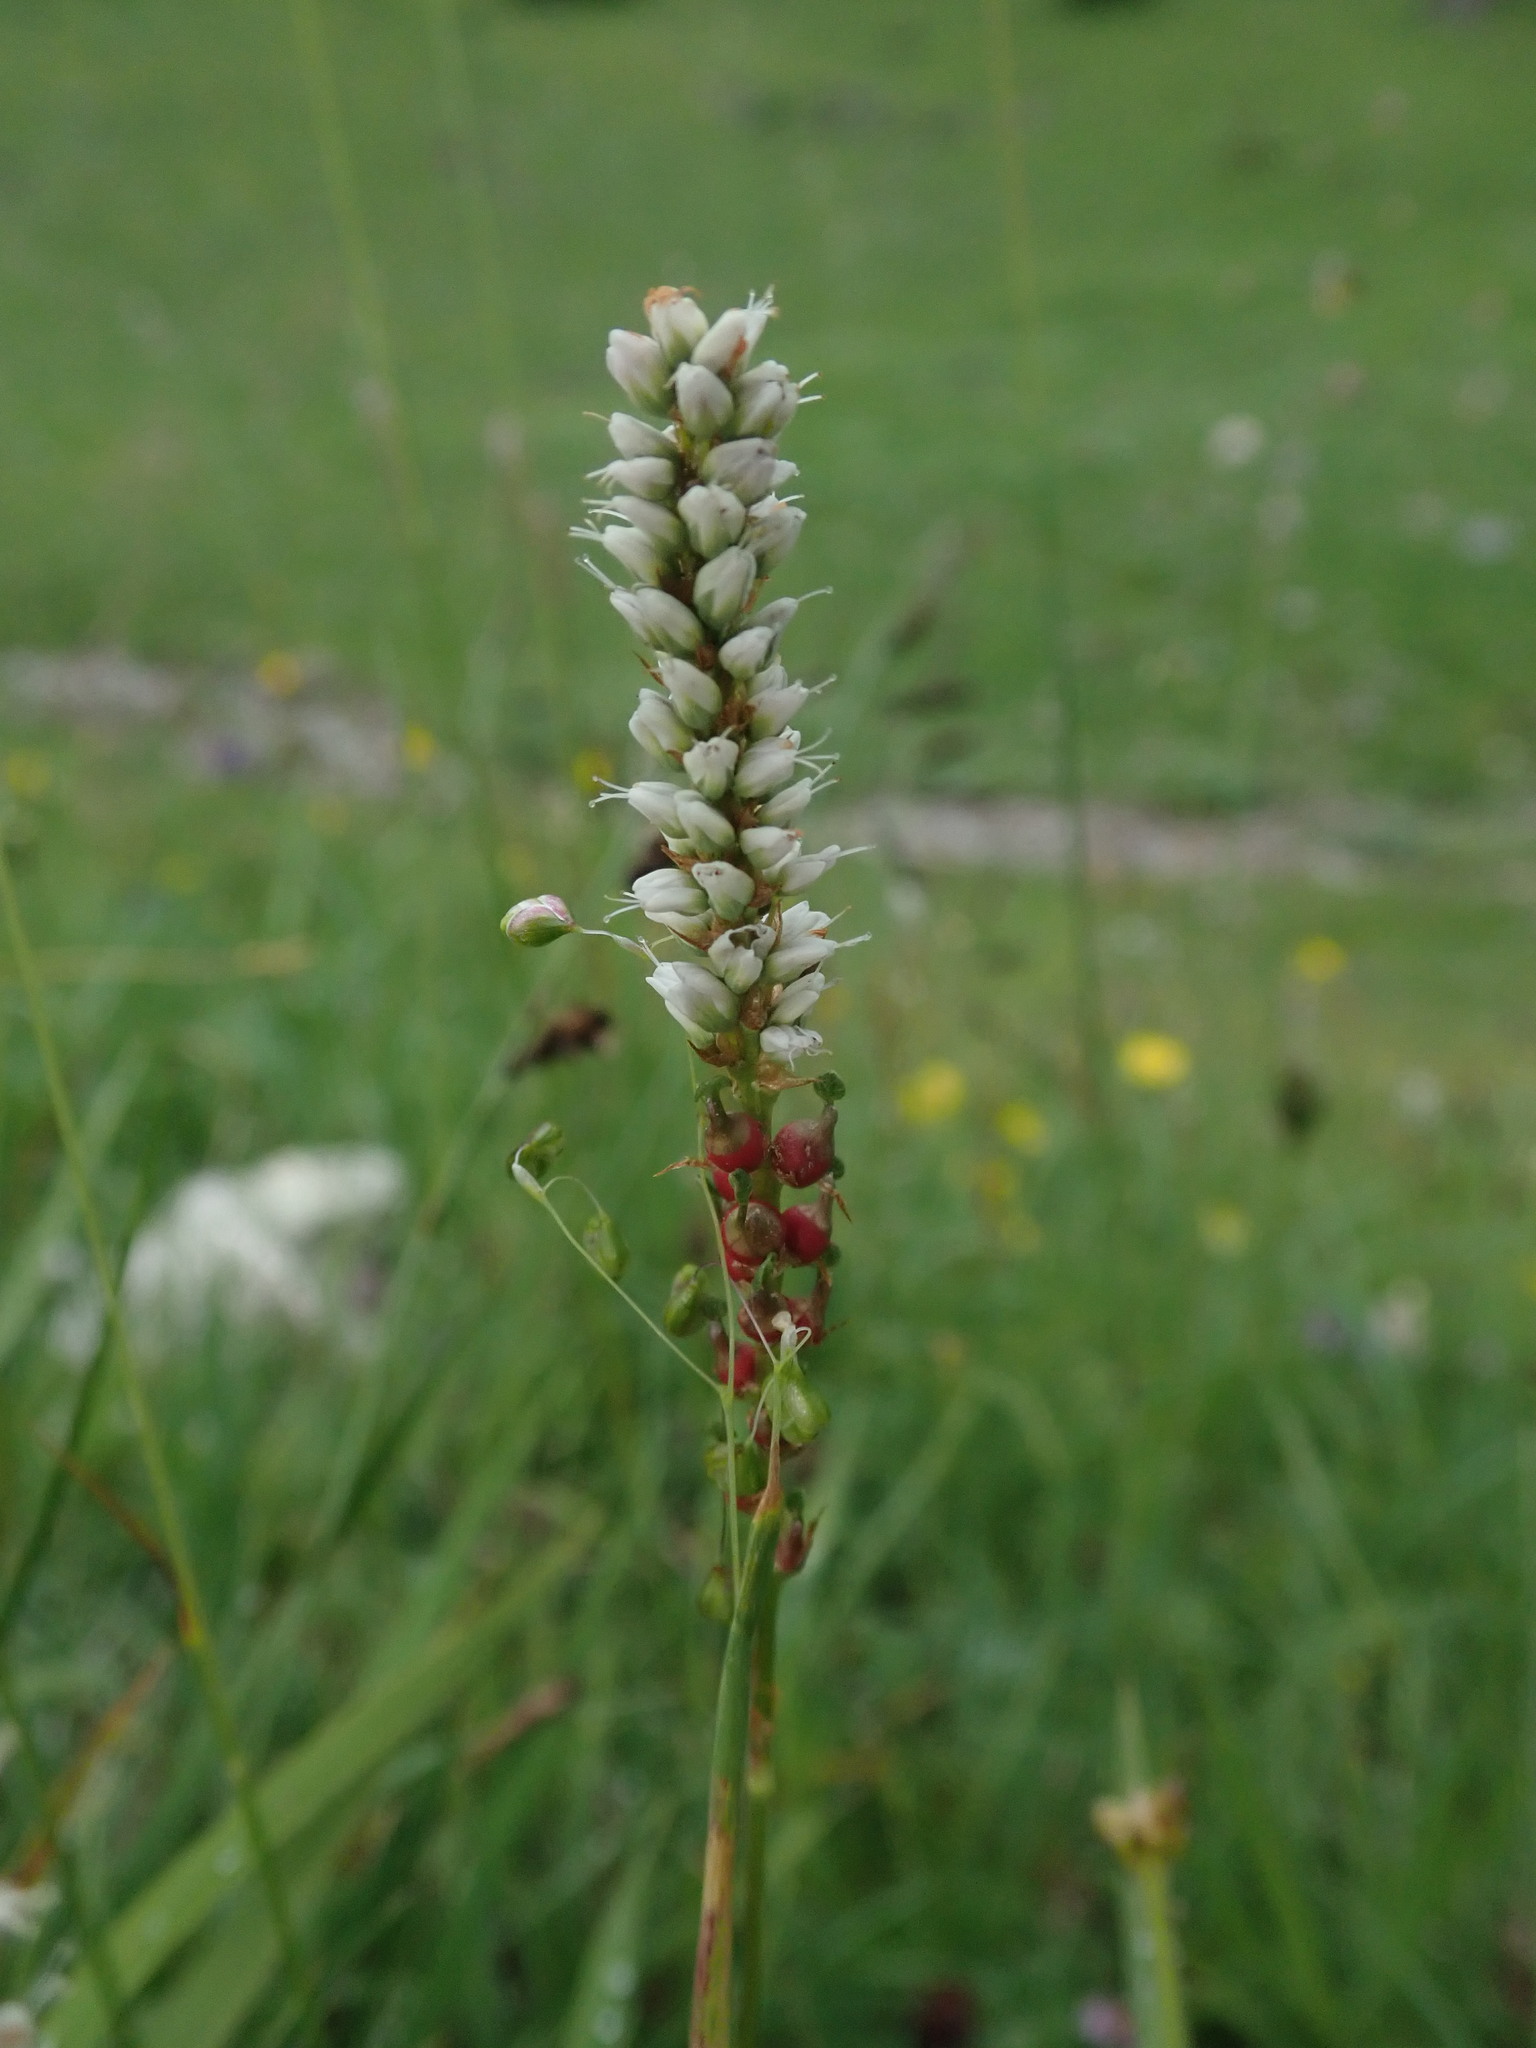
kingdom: Plantae
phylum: Tracheophyta
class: Magnoliopsida
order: Caryophyllales
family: Polygonaceae
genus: Bistorta
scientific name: Bistorta vivipara
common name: Alpine bistort
